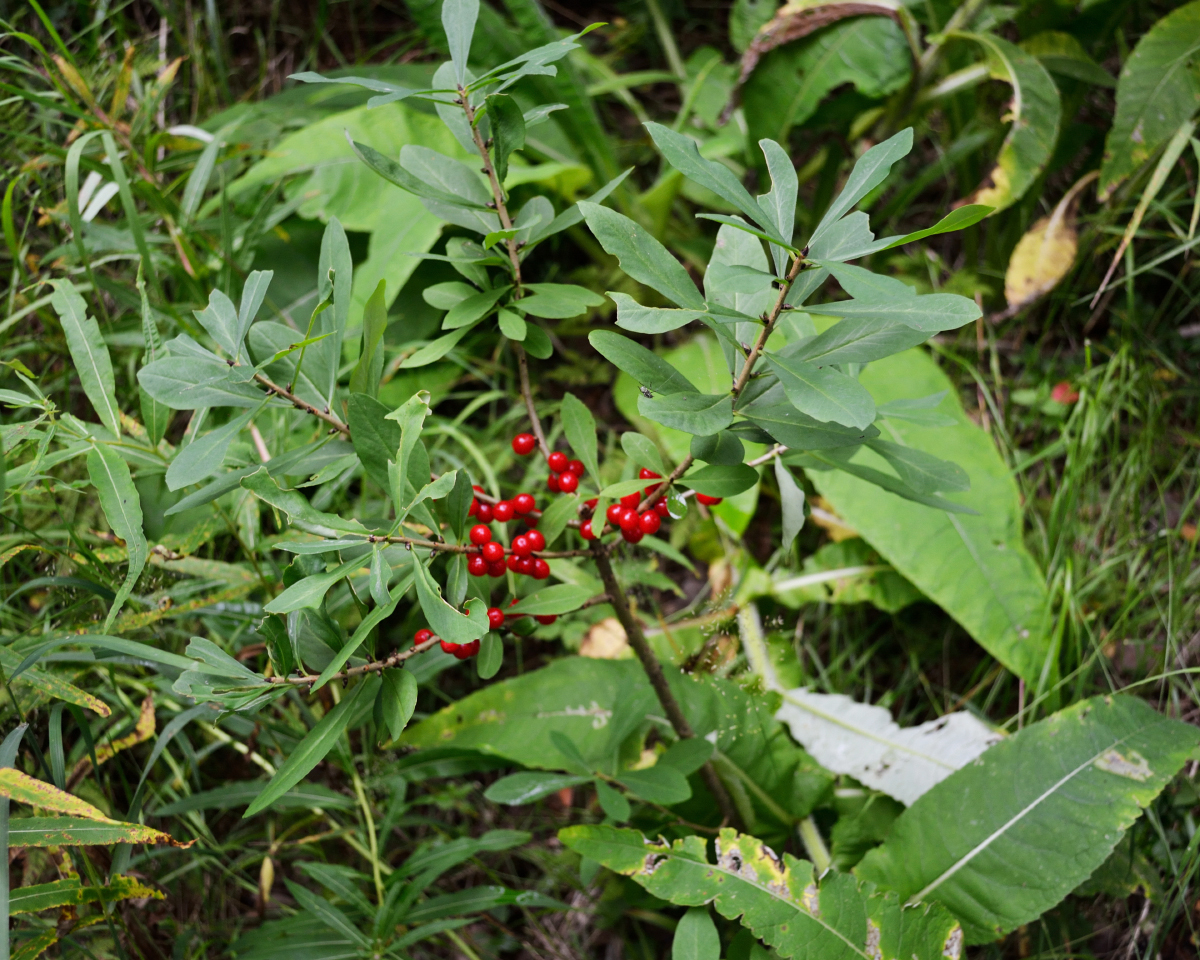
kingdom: Plantae
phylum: Tracheophyta
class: Magnoliopsida
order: Malvales
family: Thymelaeaceae
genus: Daphne
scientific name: Daphne mezereum
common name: Mezereon
